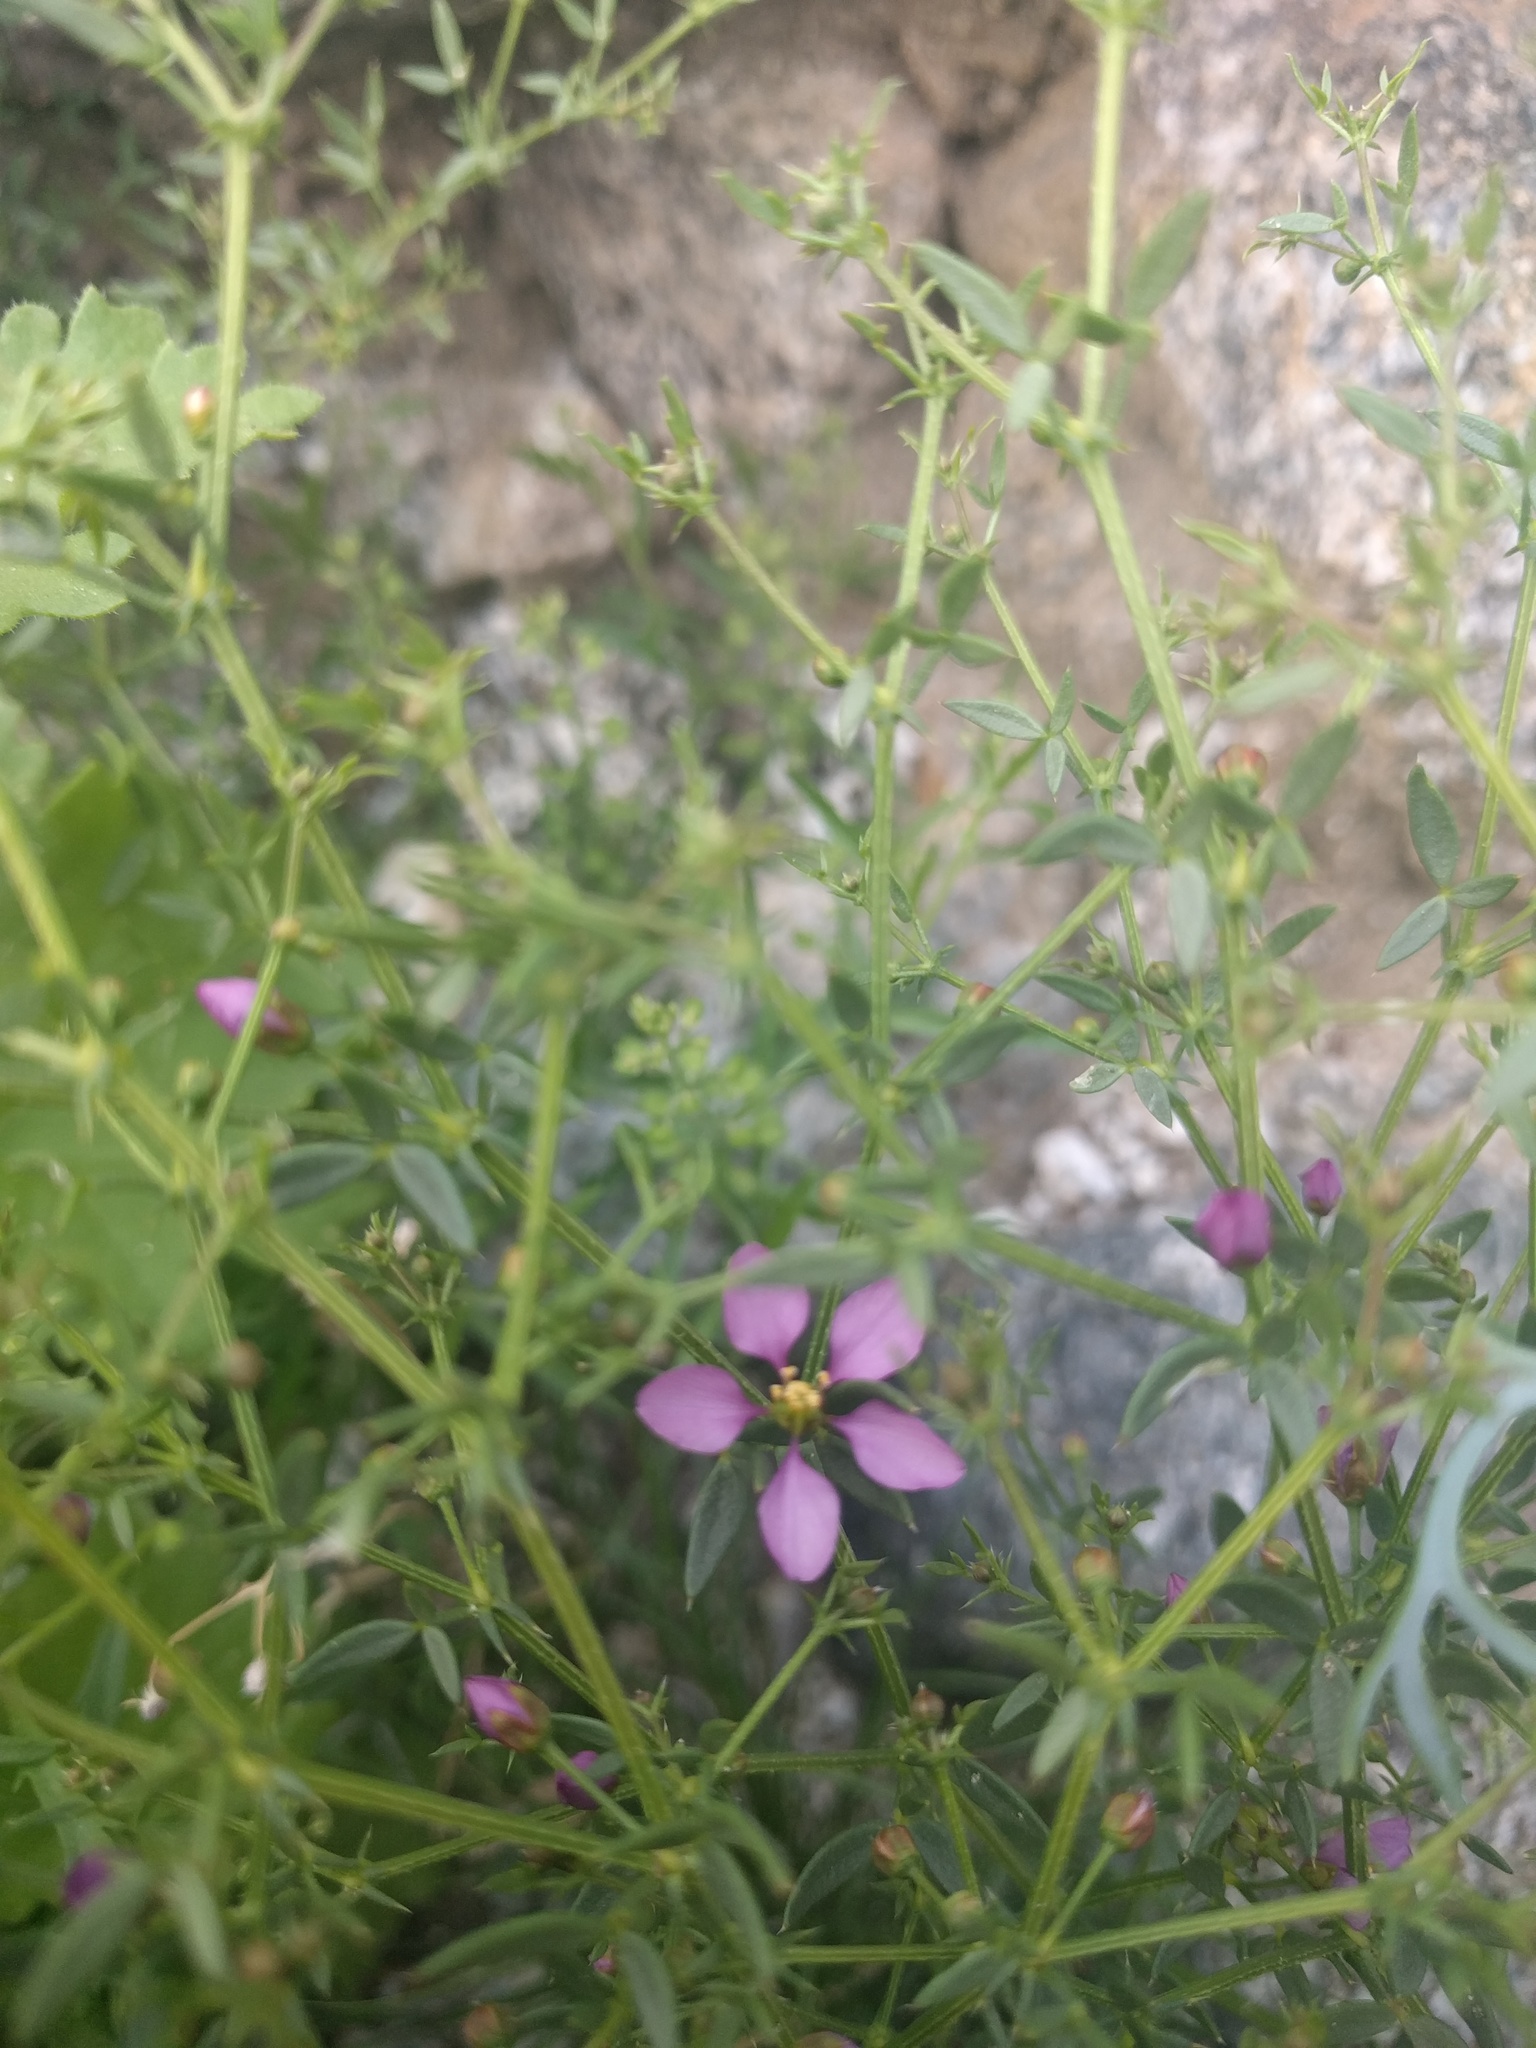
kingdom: Plantae
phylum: Tracheophyta
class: Magnoliopsida
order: Zygophyllales
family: Zygophyllaceae
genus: Fagonia
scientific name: Fagonia laevis
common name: California fagonbush
